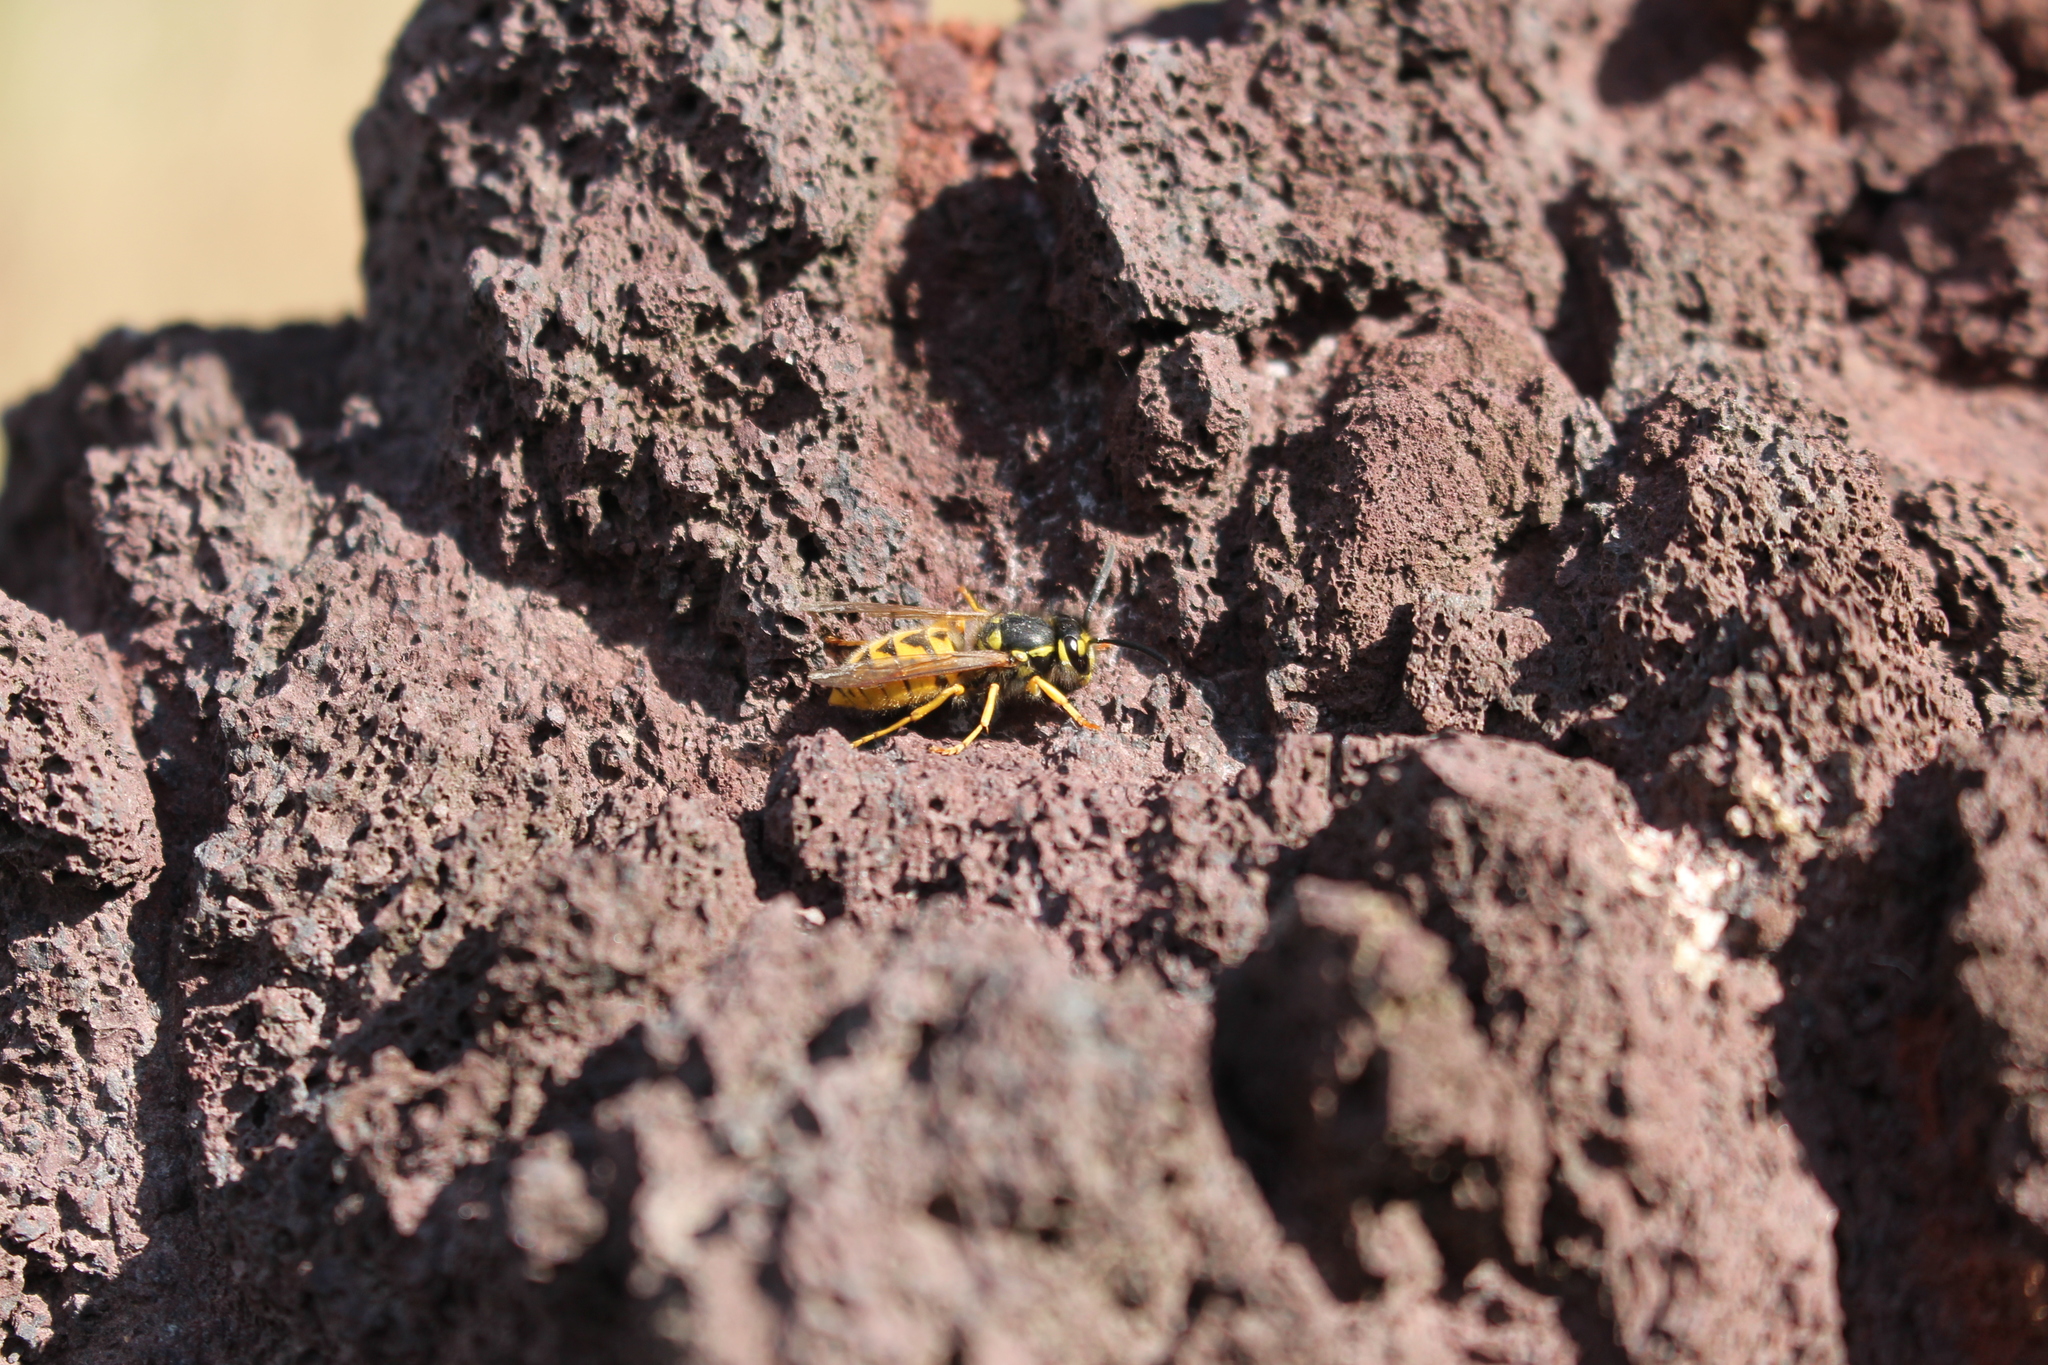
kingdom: Animalia
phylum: Arthropoda
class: Insecta
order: Hymenoptera
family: Vespidae
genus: Vespula
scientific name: Vespula germanica
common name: German wasp
